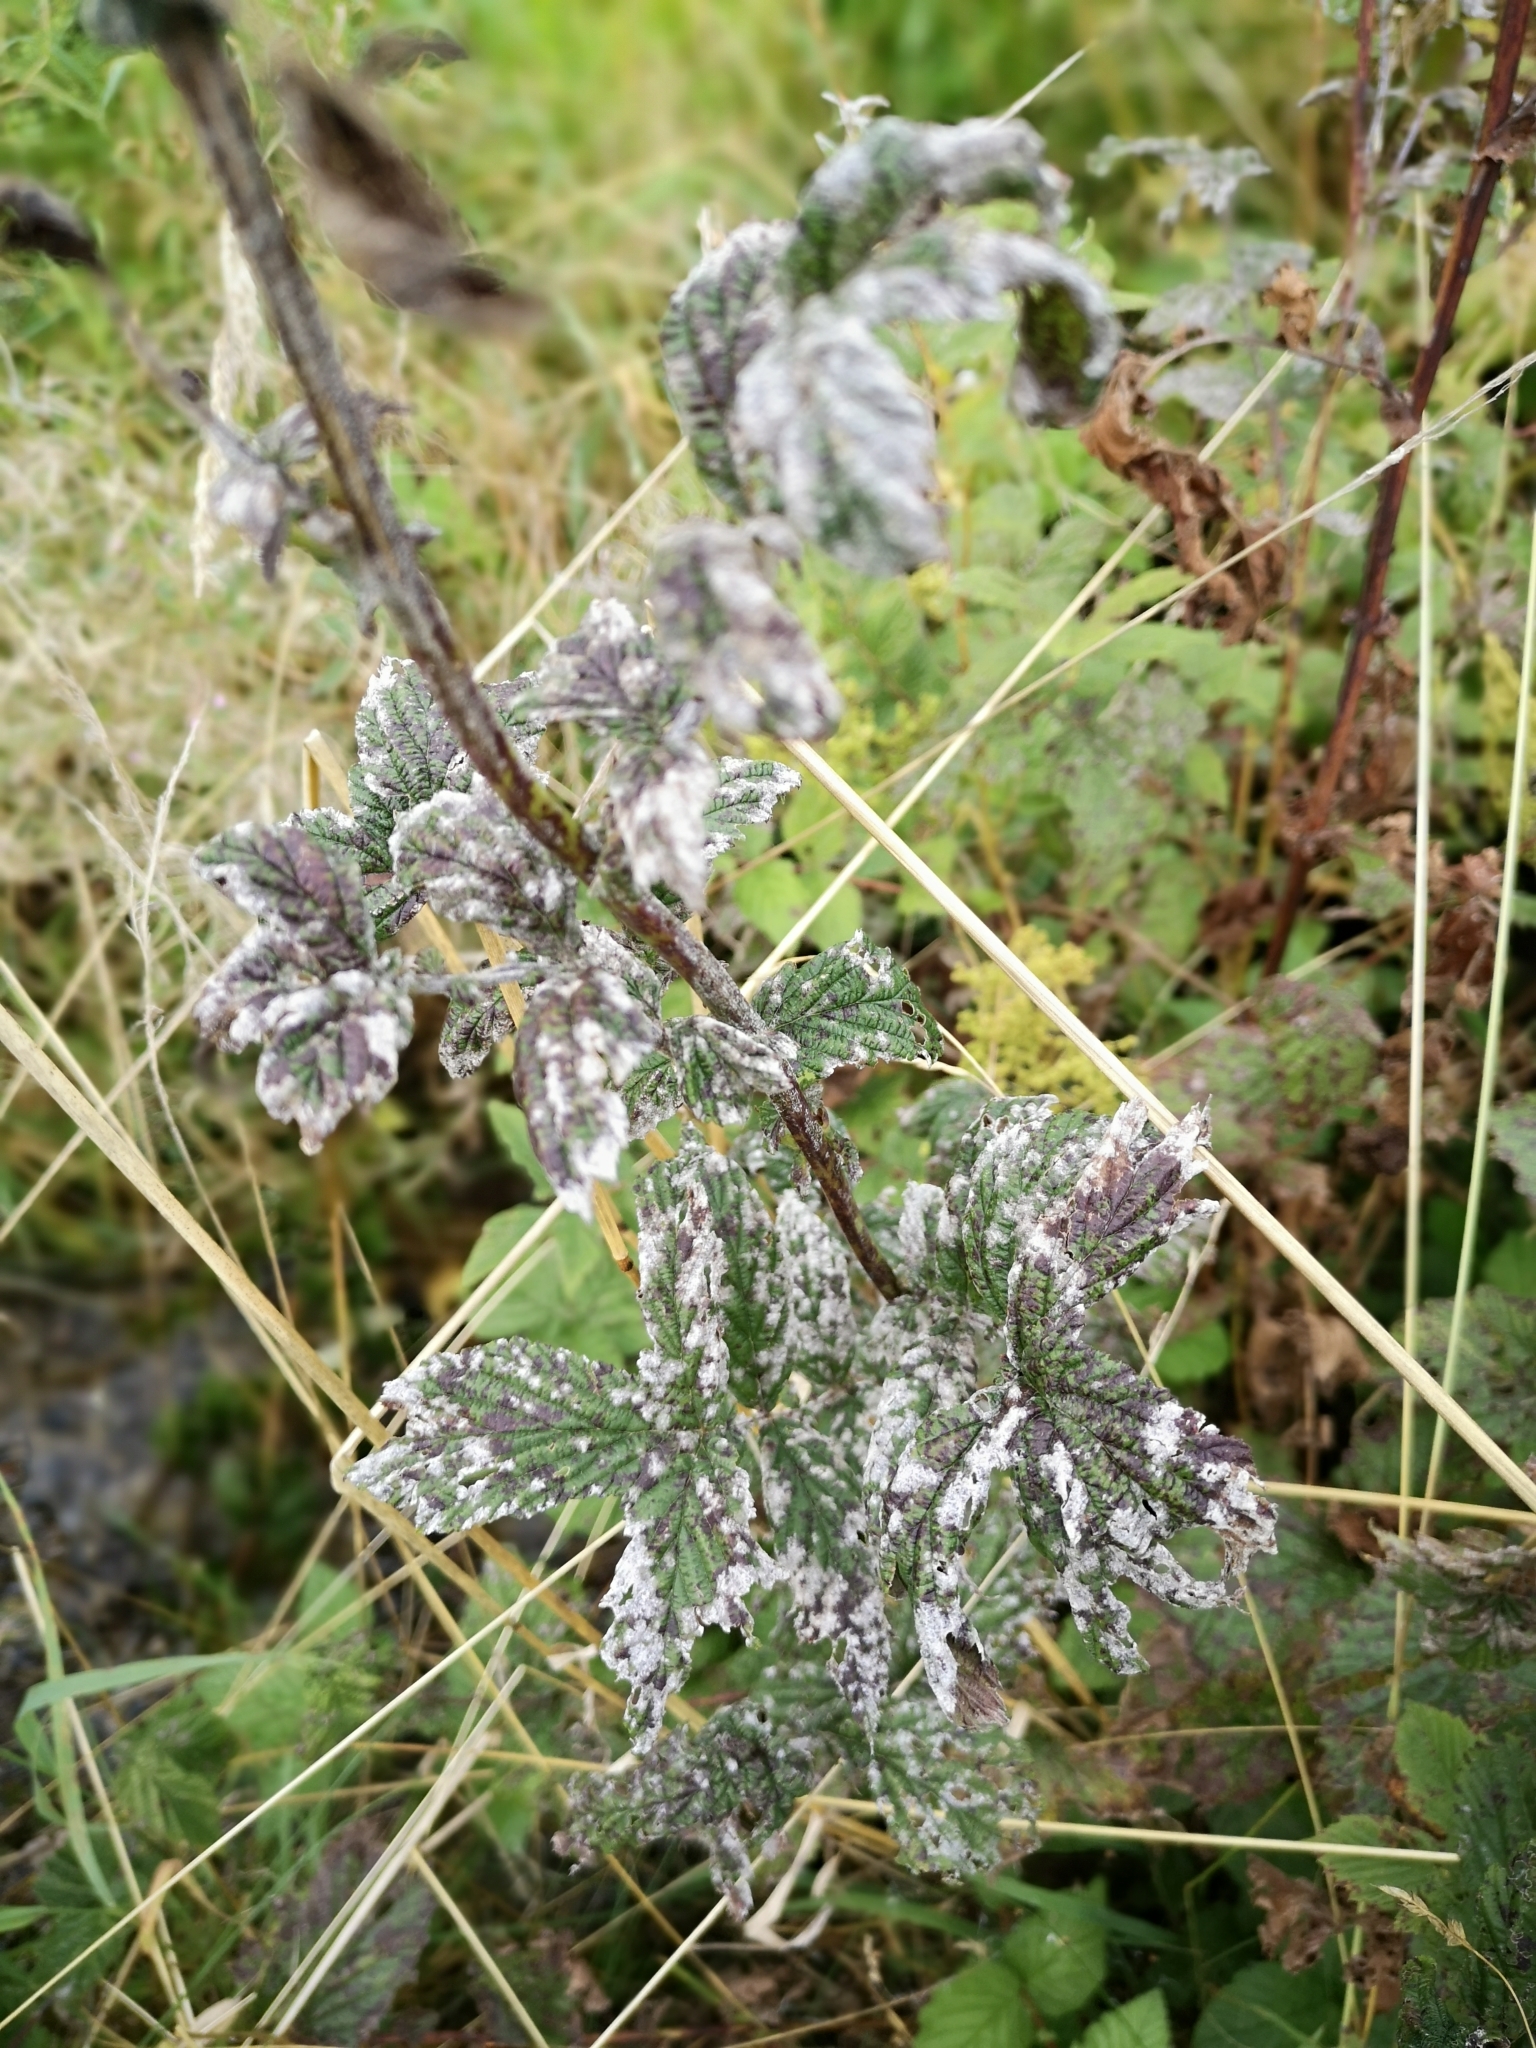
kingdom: Plantae
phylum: Tracheophyta
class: Magnoliopsida
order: Rosales
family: Cannabaceae
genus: Humulus
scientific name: Humulus lupulus
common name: Hop
